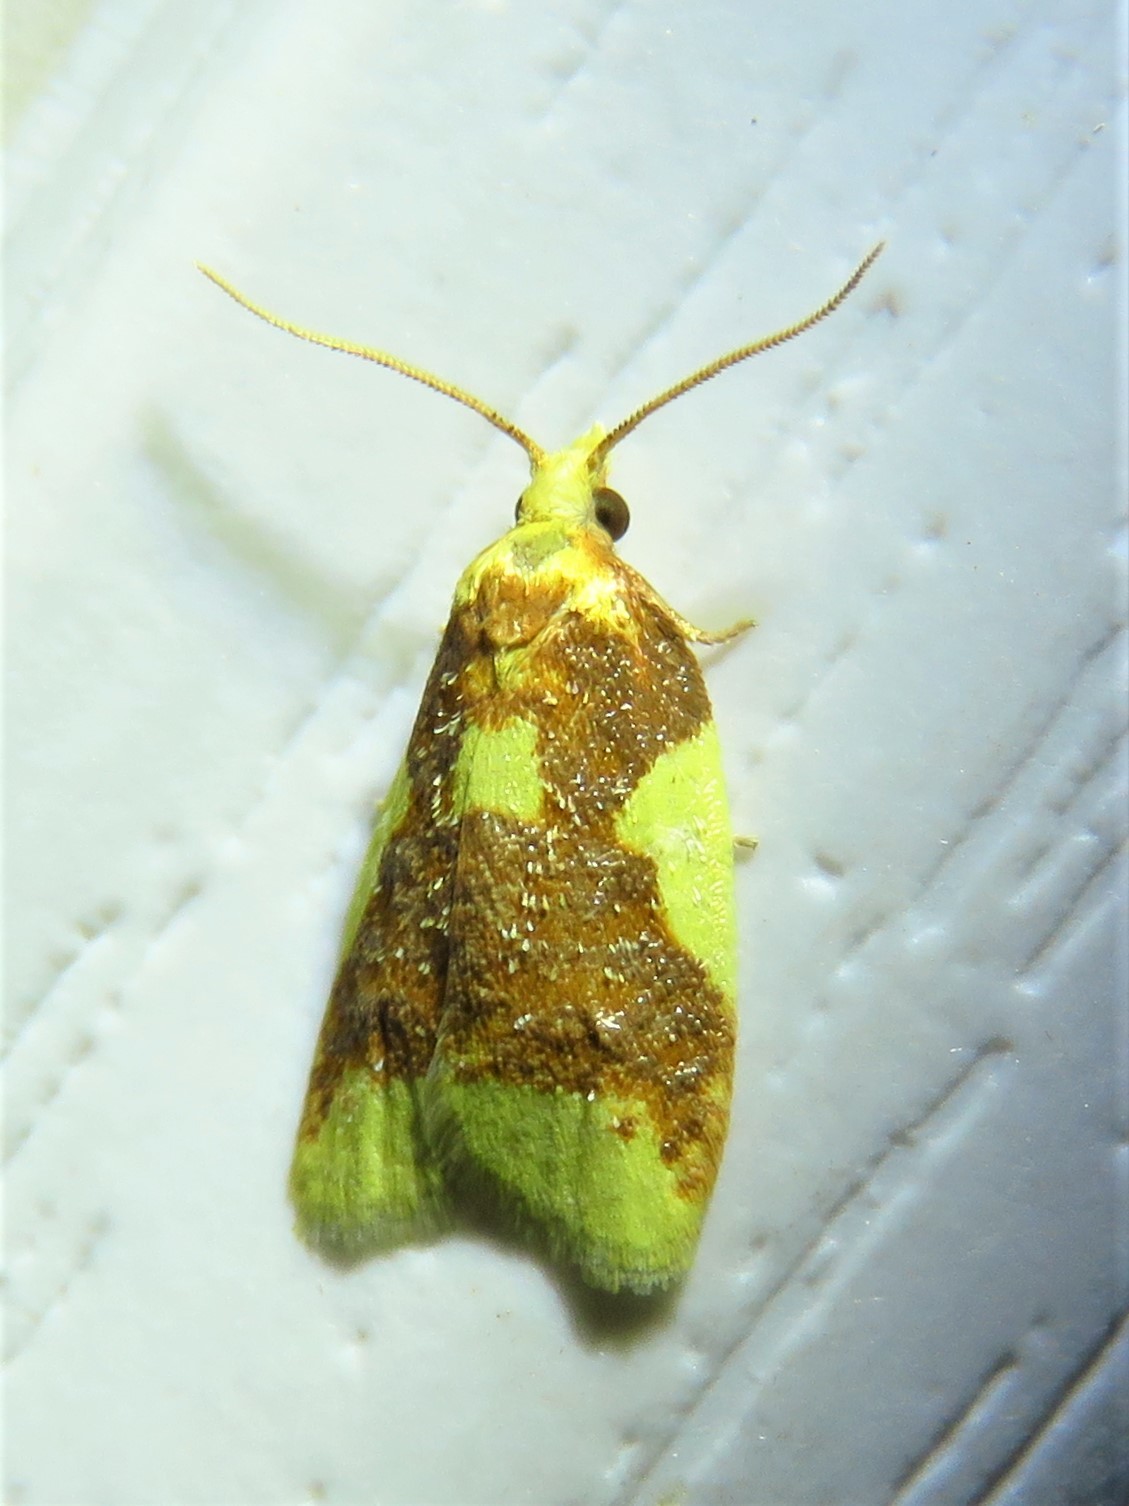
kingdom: Animalia
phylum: Arthropoda
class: Insecta
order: Lepidoptera
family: Tortricidae
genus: Sparganothis
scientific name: Sparganothis pulcherrimana
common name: Beautiful sparganothis
